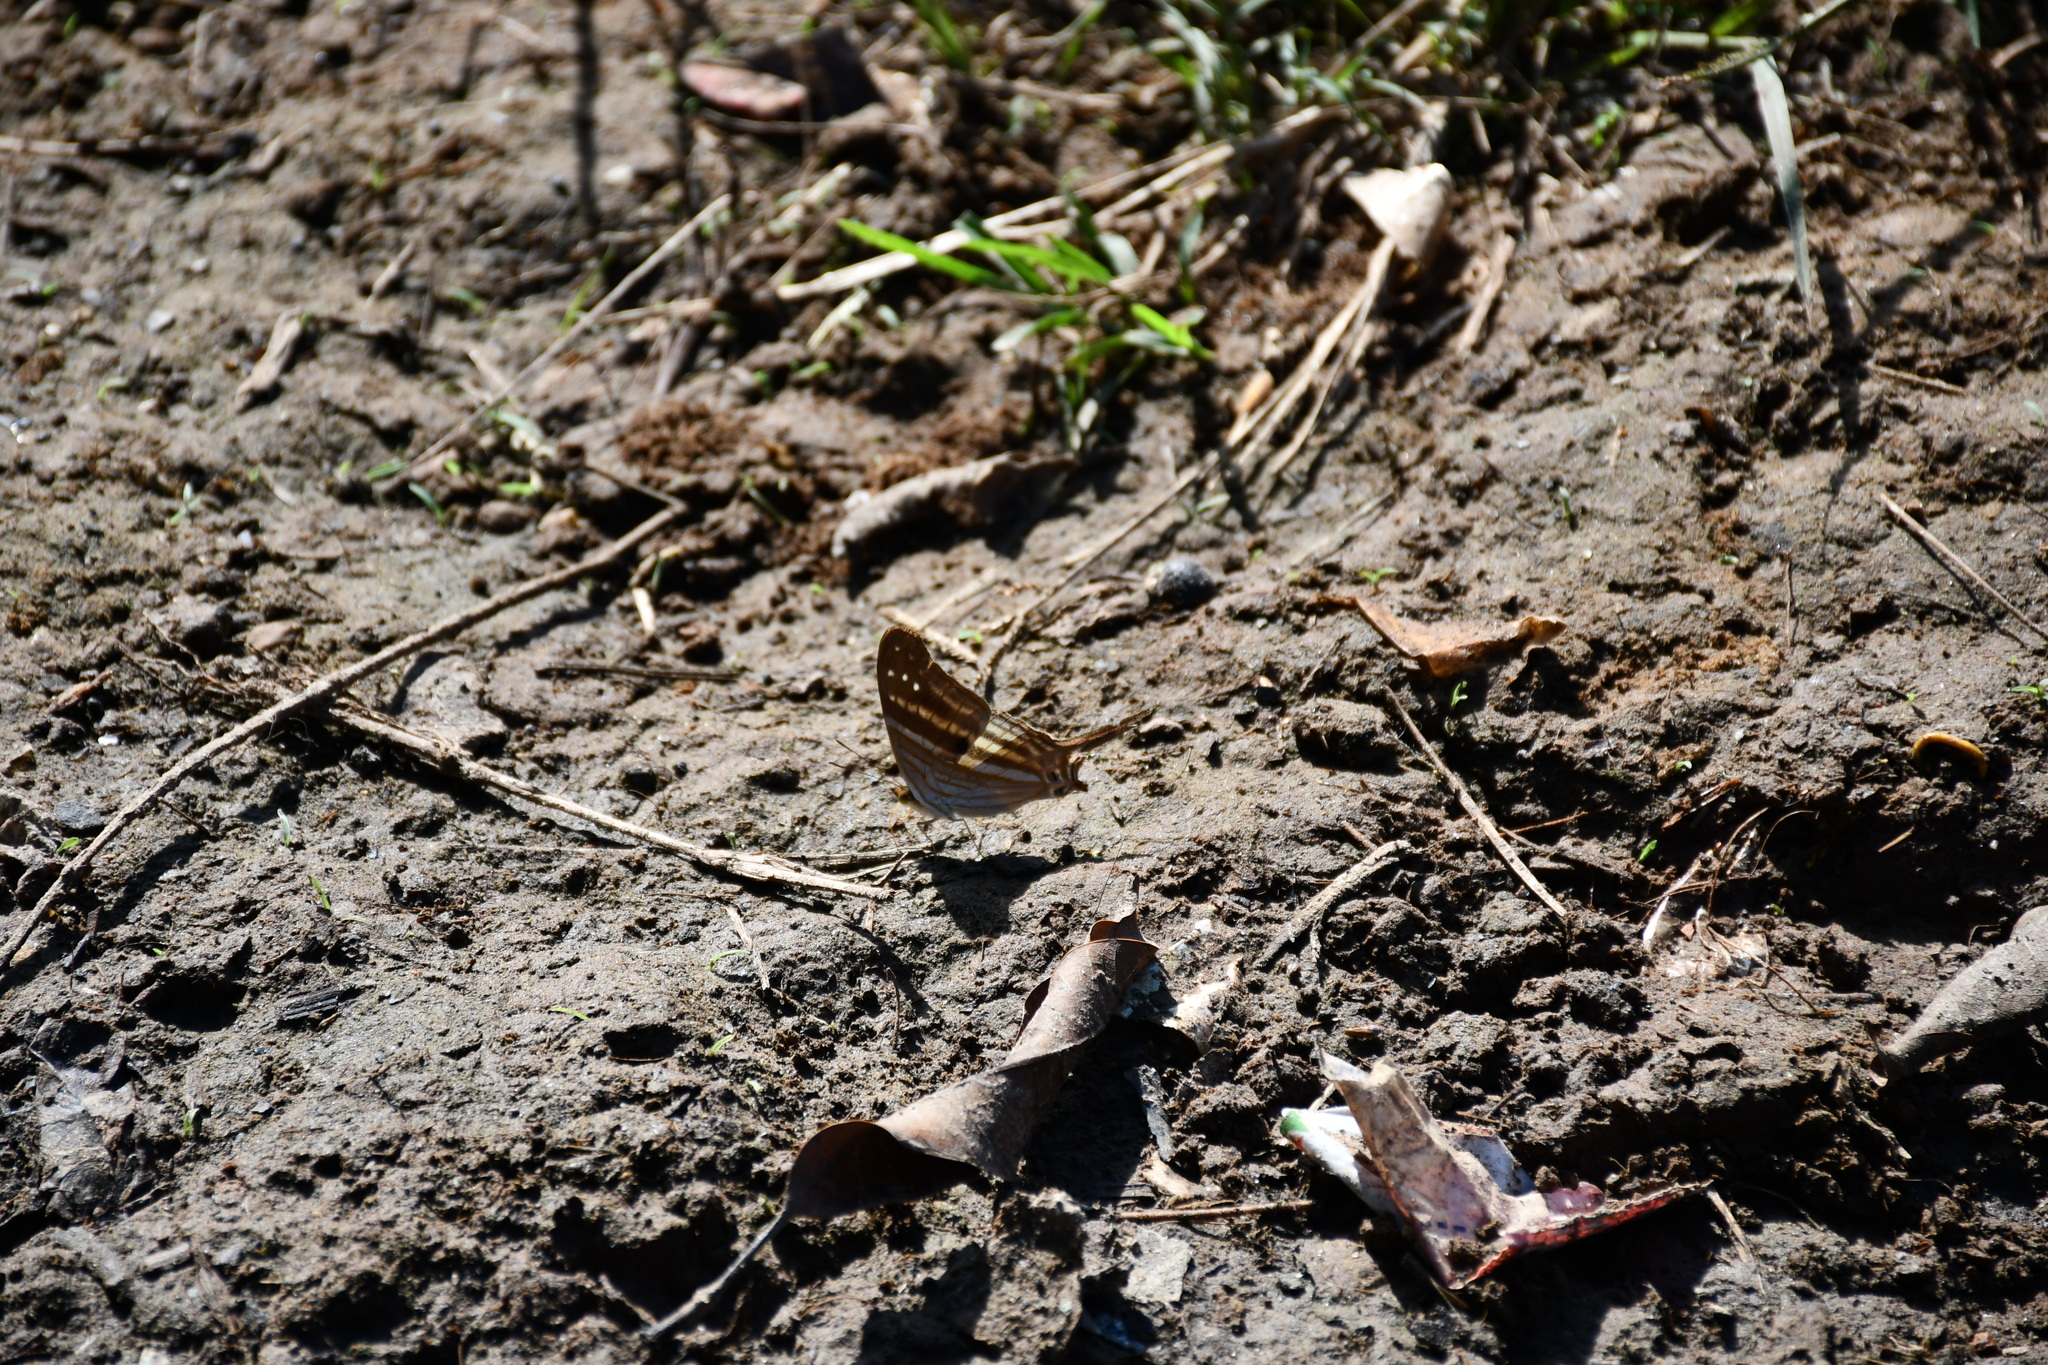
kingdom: Animalia
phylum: Arthropoda
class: Insecta
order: Lepidoptera
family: Nymphalidae
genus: Marpesia
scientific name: Marpesia chiron
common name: Many-banded daggerwing
